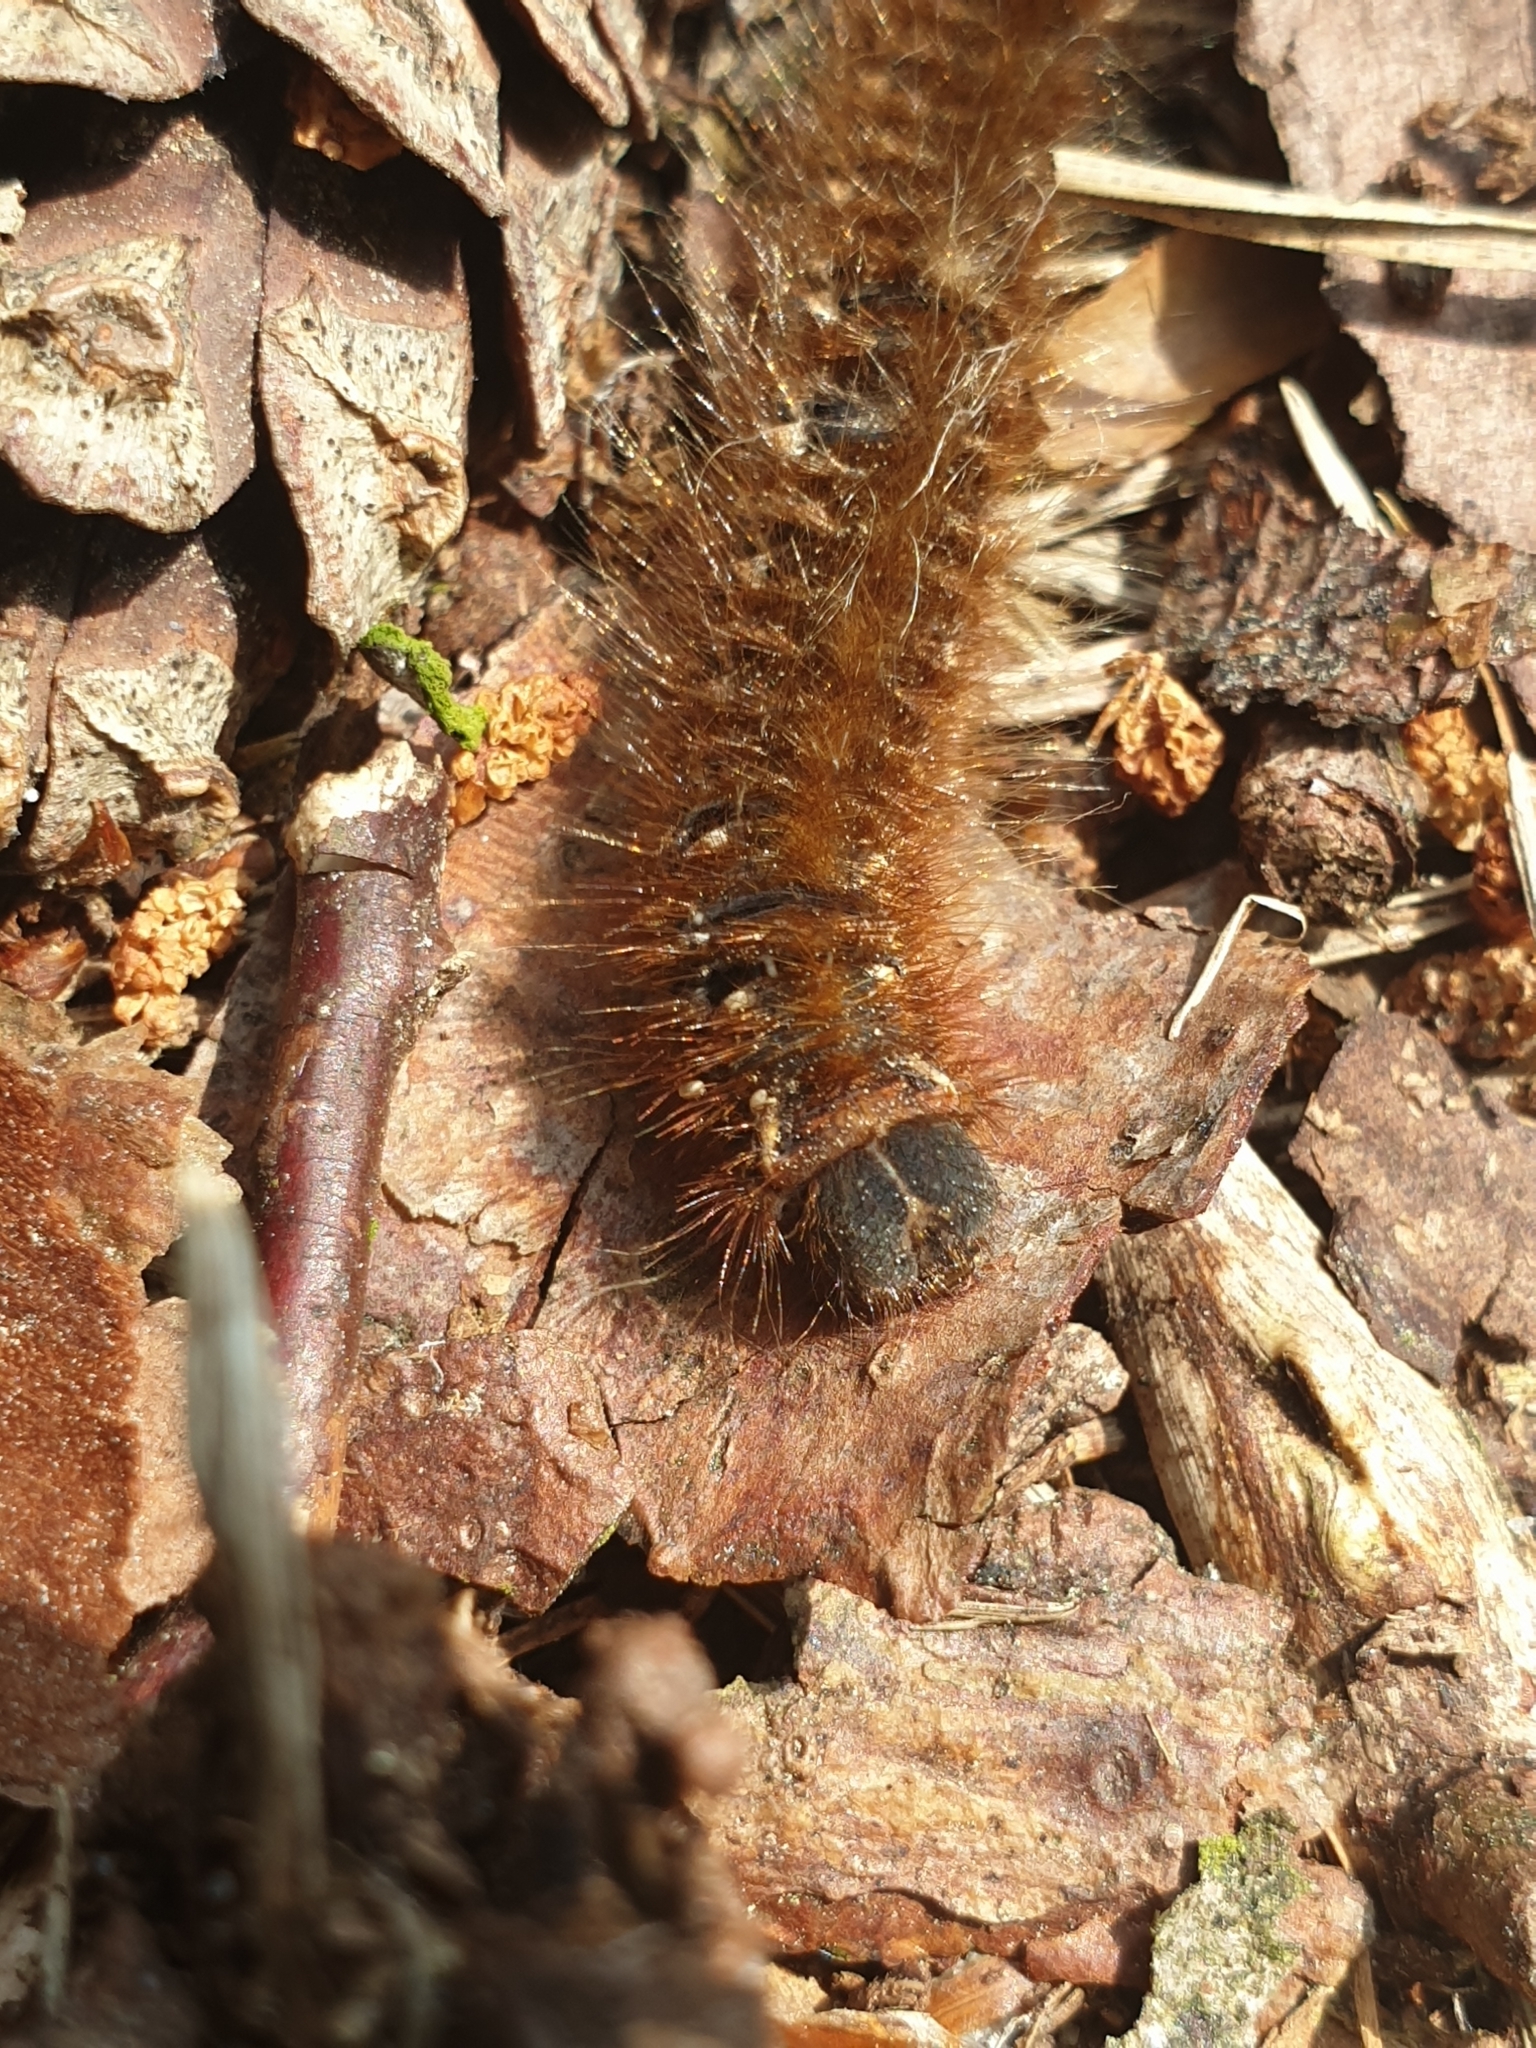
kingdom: Animalia
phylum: Arthropoda
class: Insecta
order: Lepidoptera
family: Lasiocampidae
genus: Lasiocampa
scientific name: Lasiocampa quercus
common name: Oak eggar
